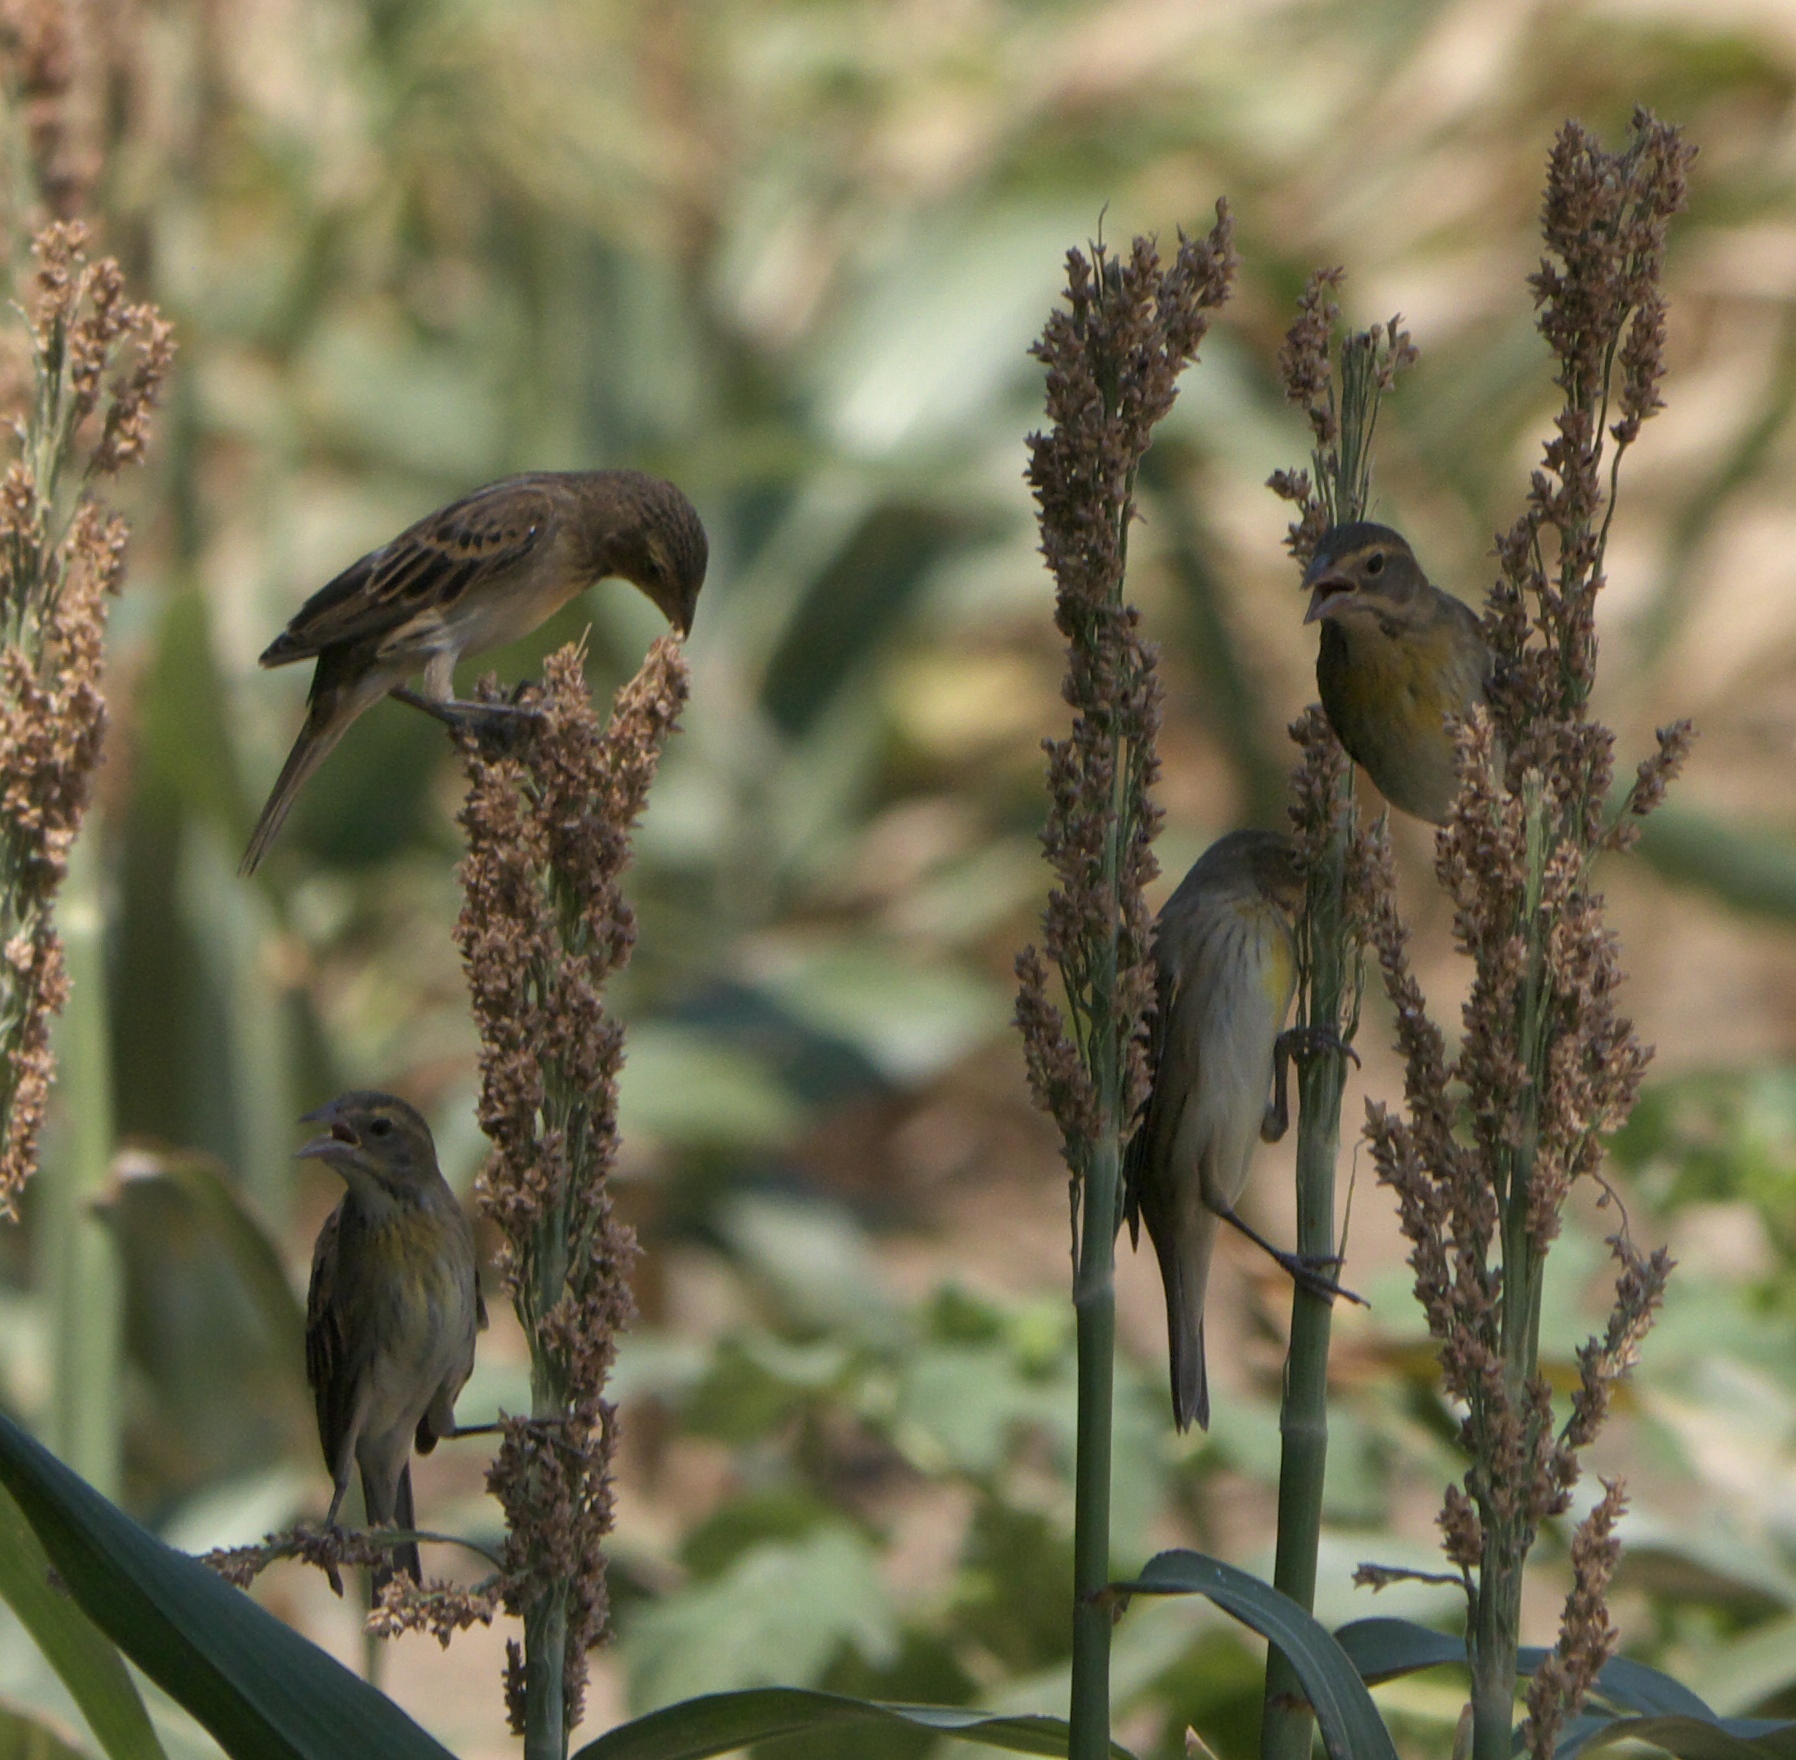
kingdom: Animalia
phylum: Chordata
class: Aves
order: Passeriformes
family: Cardinalidae
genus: Spiza
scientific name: Spiza americana
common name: Dickcissel
